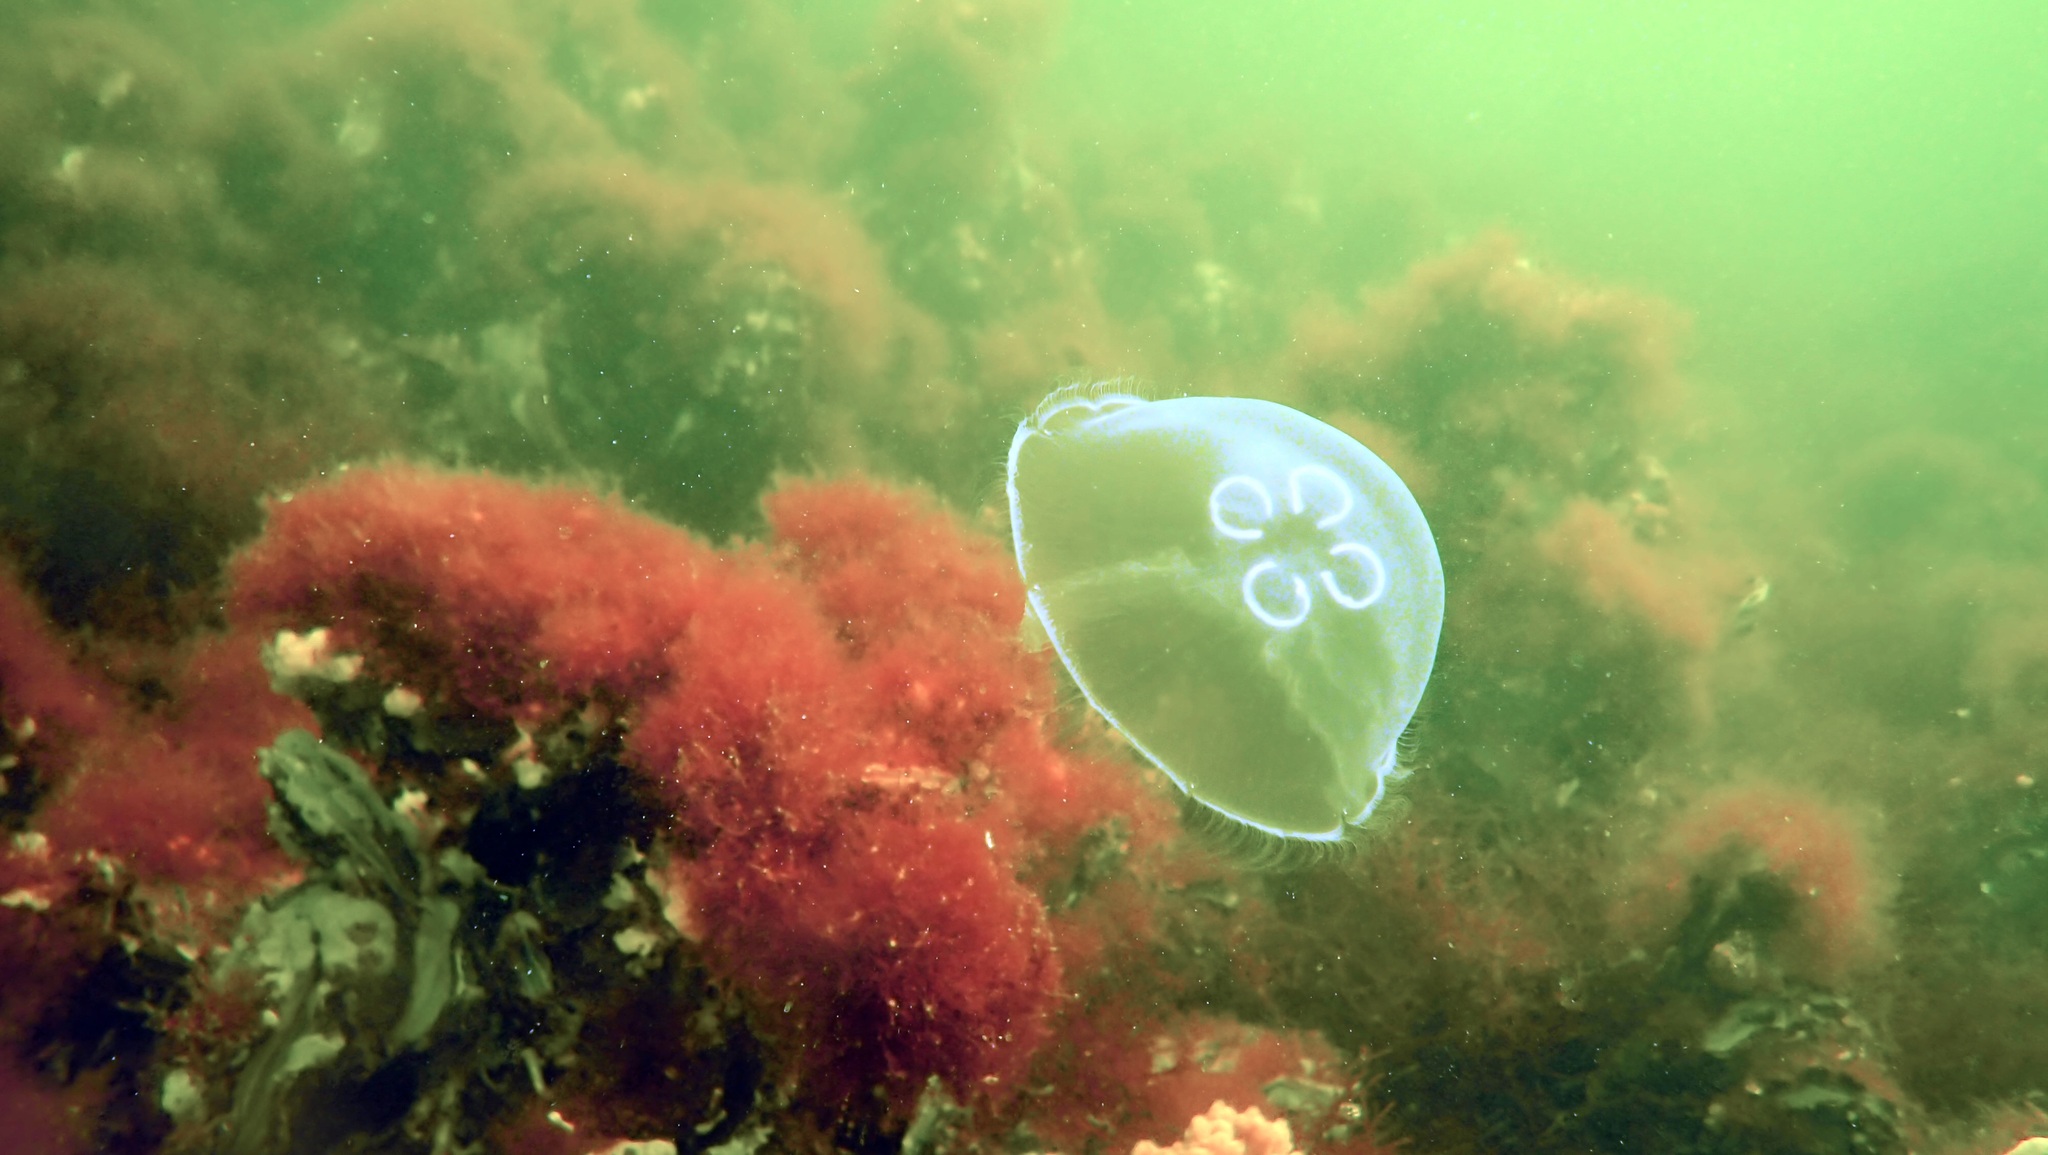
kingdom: Animalia
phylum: Cnidaria
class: Scyphozoa
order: Semaeostomeae
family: Ulmaridae
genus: Aurelia
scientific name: Aurelia aurita
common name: Moon jellyfish
